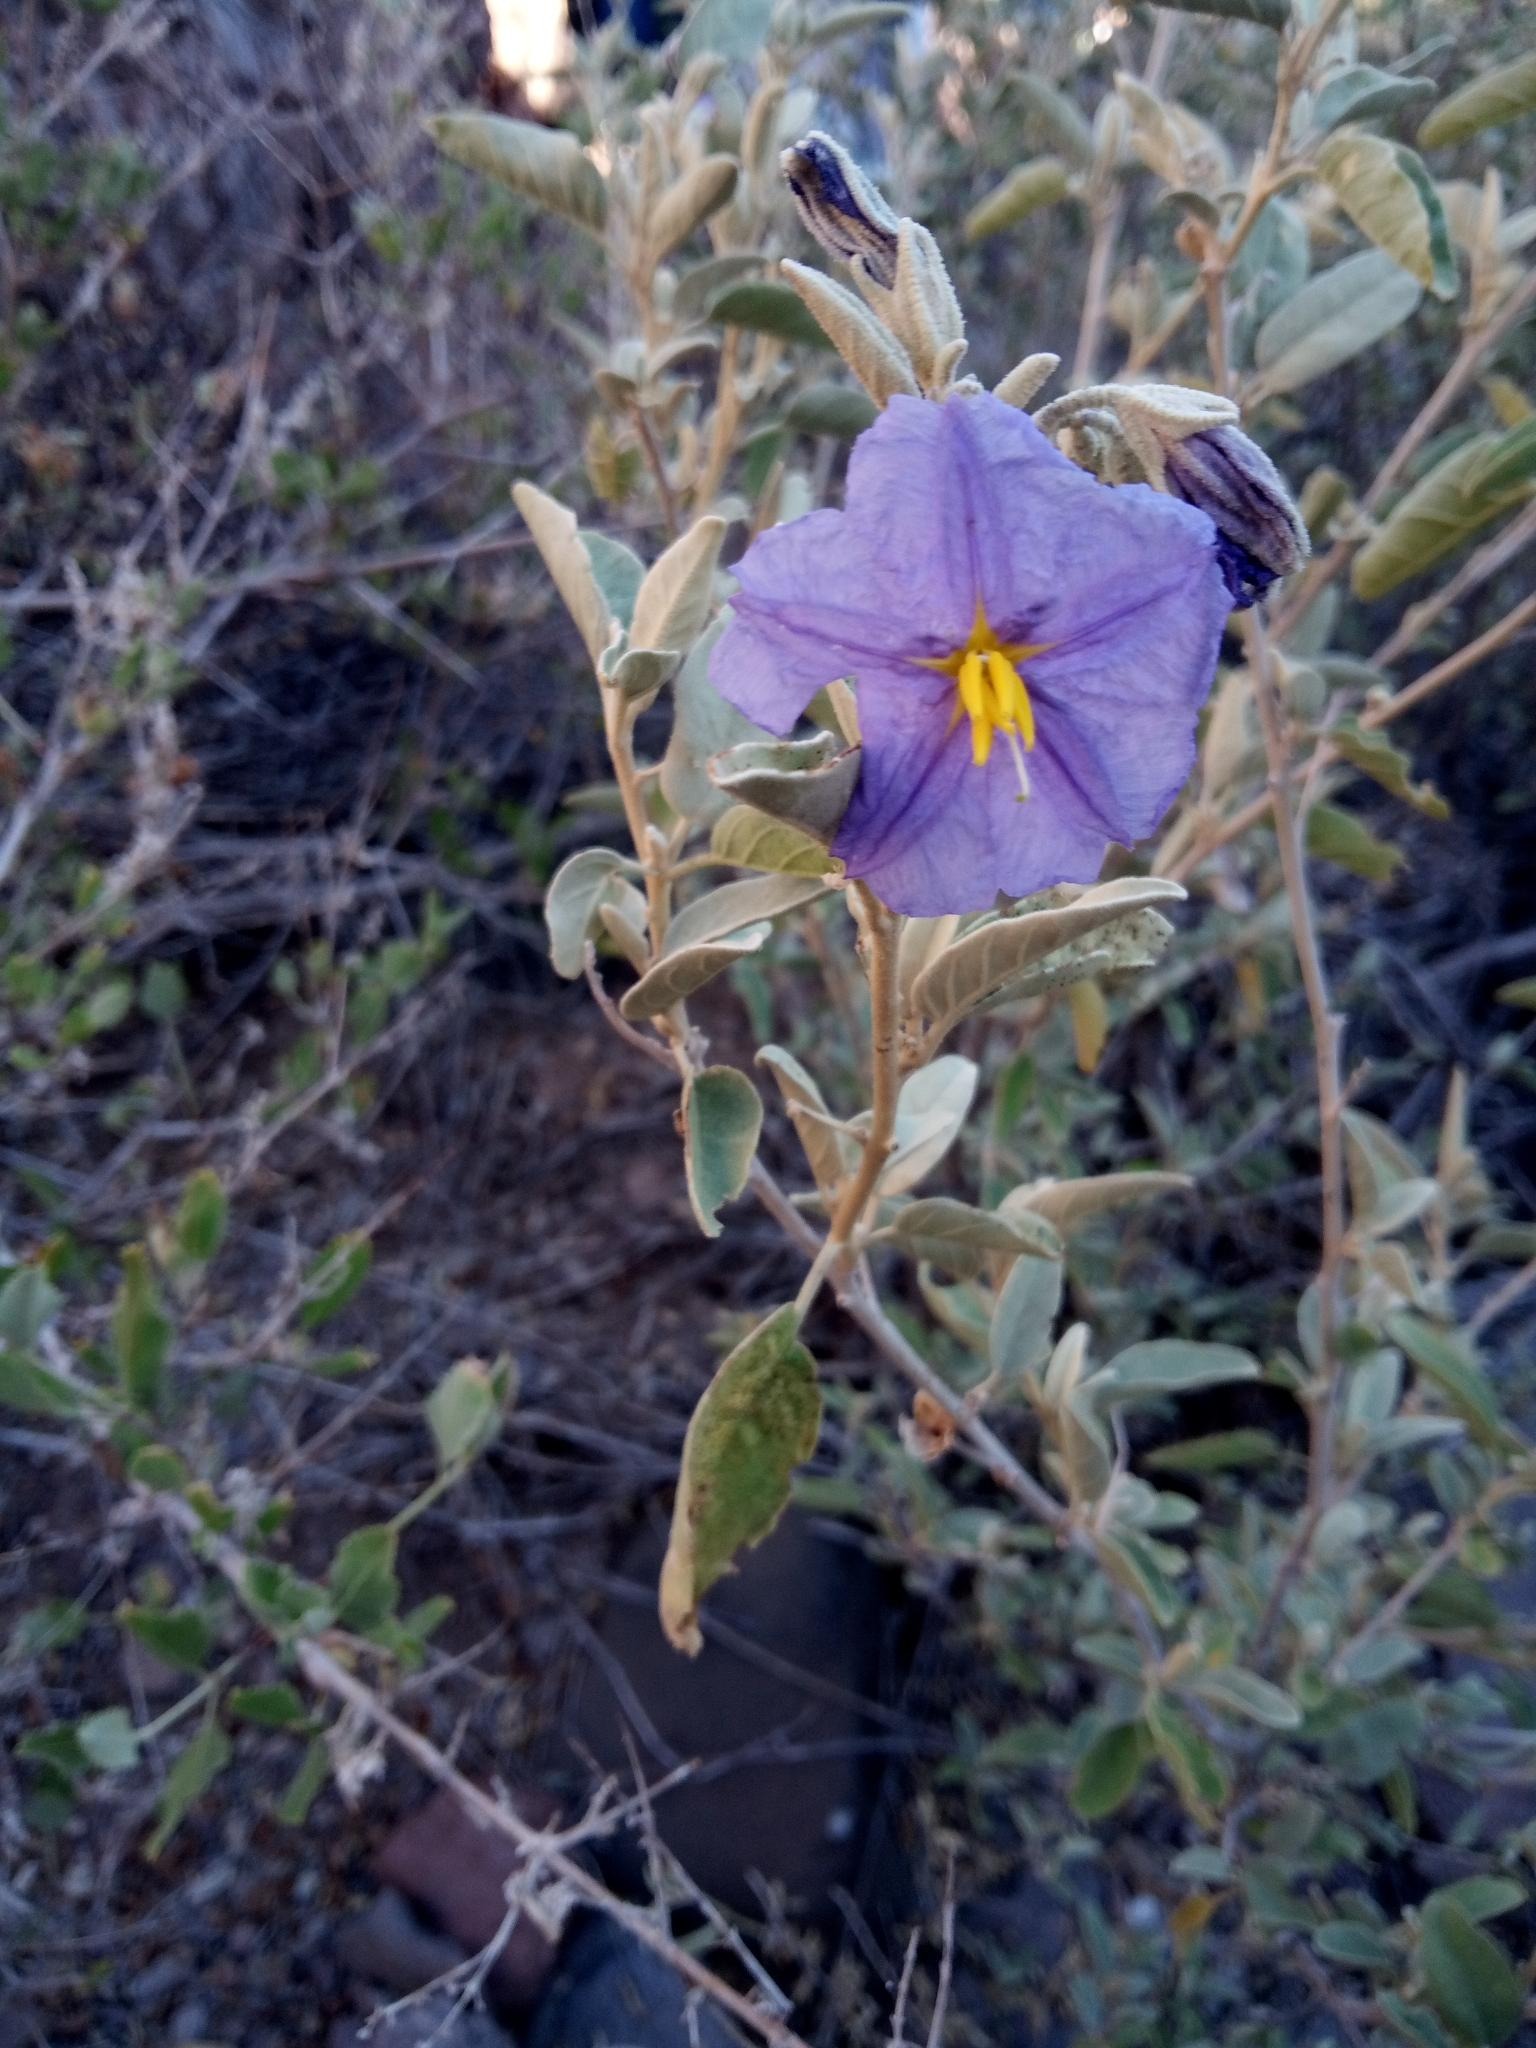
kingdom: Plantae
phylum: Tracheophyta
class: Magnoliopsida
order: Solanales
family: Solanaceae
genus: Solanum
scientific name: Solanum hindsianum
